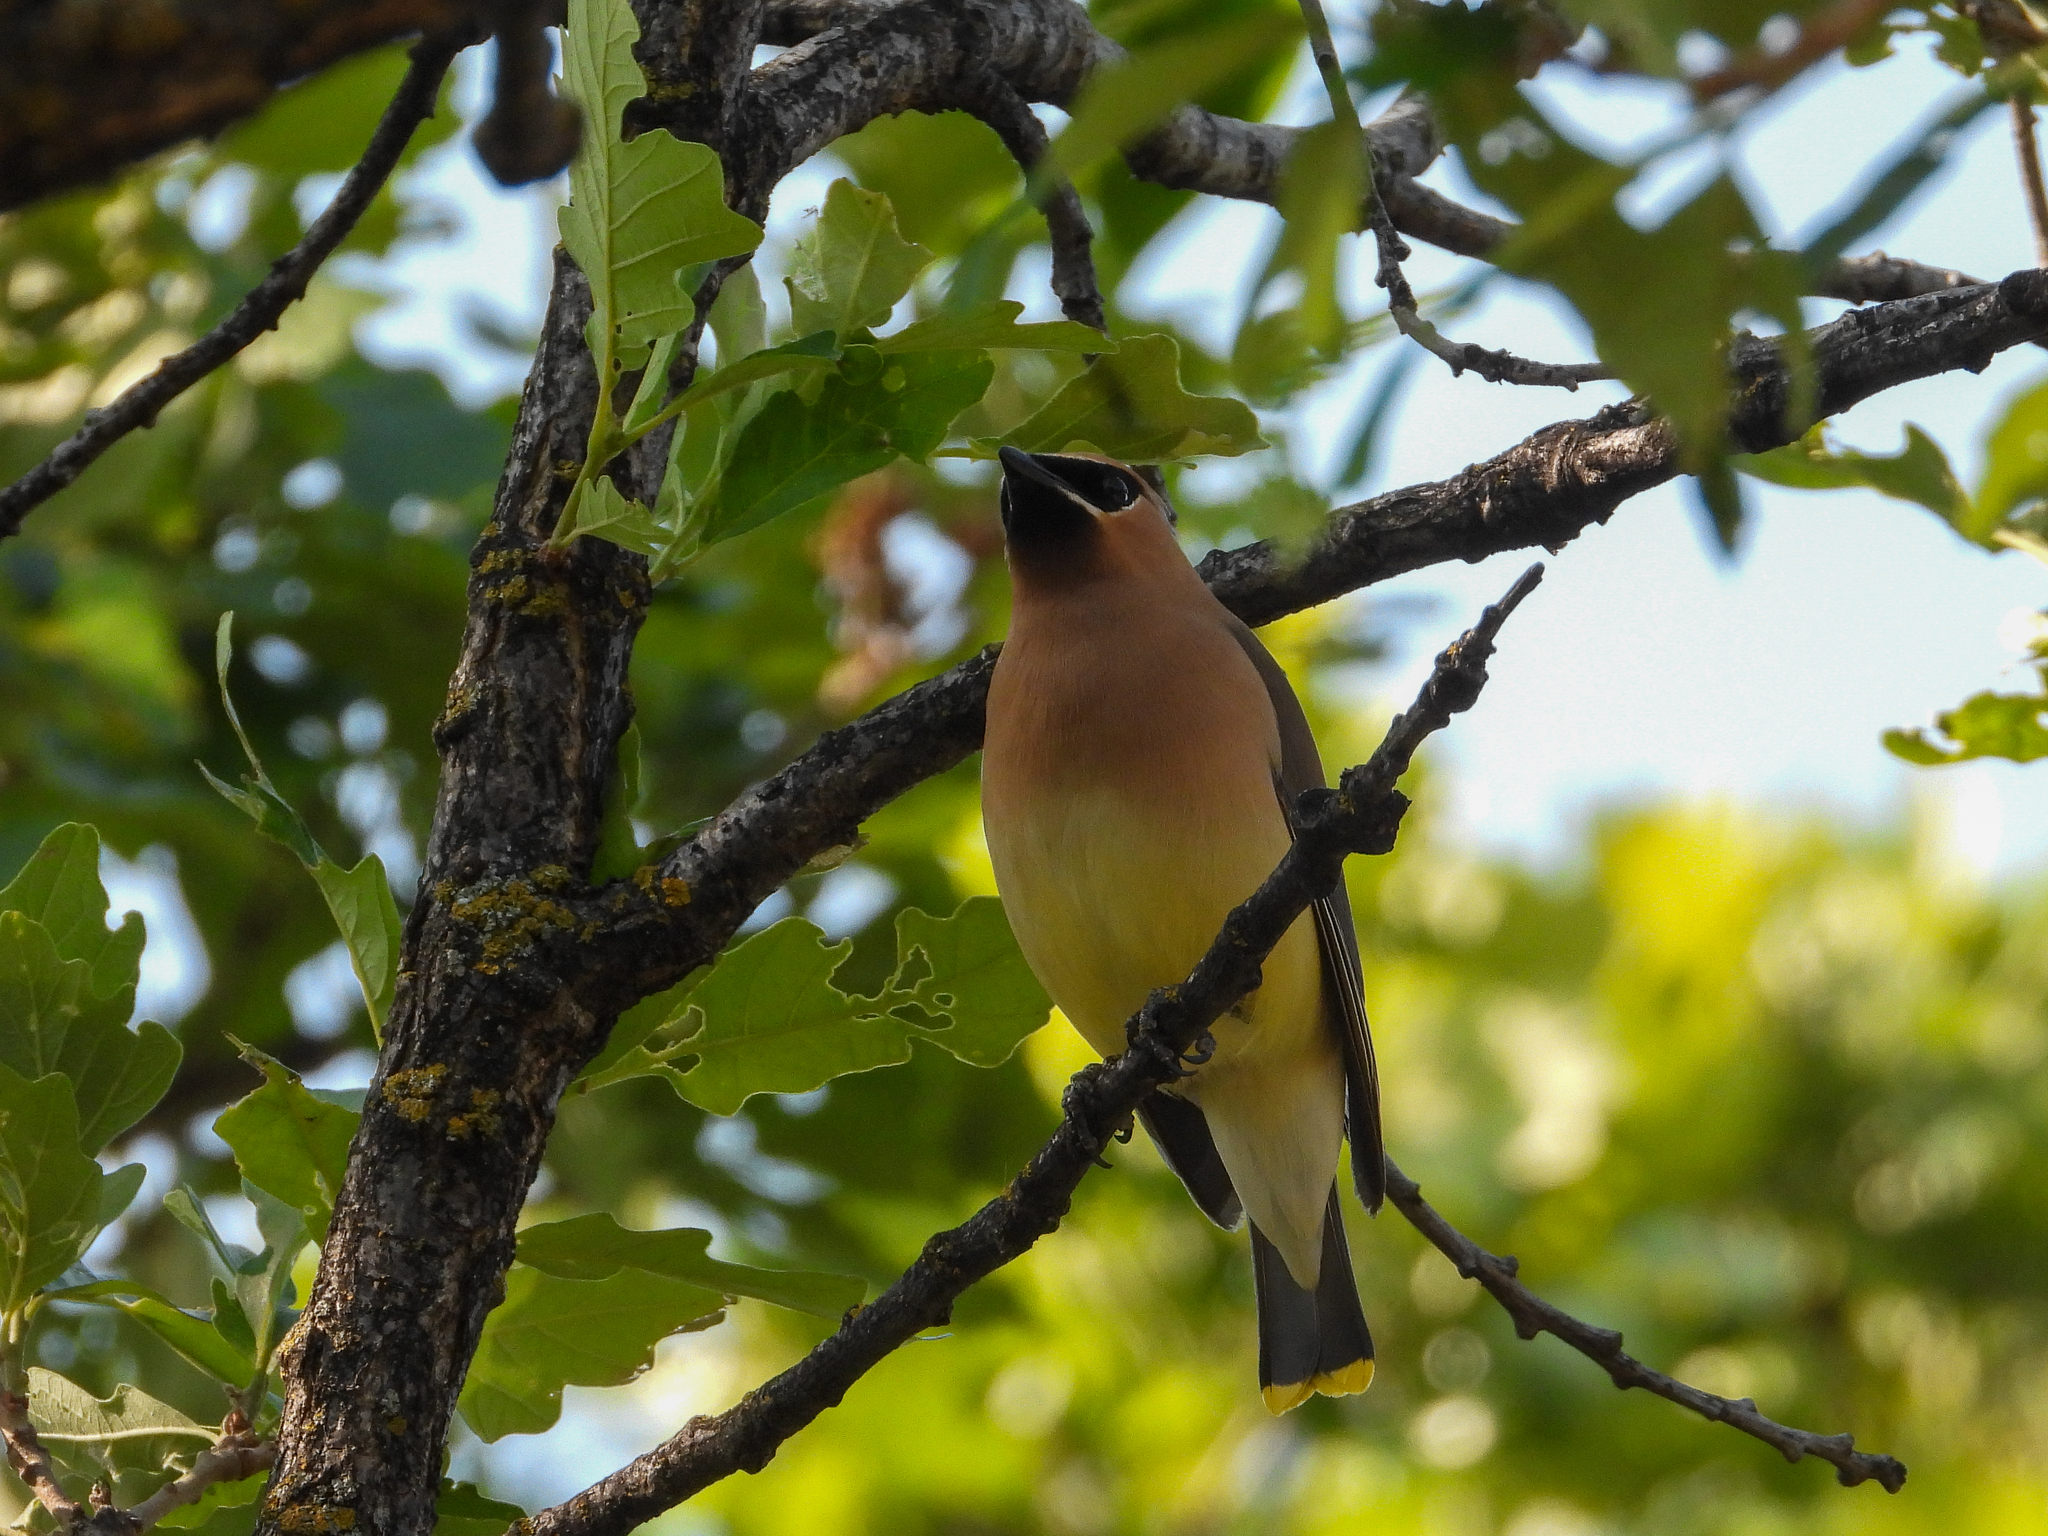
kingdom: Animalia
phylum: Chordata
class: Aves
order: Passeriformes
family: Bombycillidae
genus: Bombycilla
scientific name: Bombycilla cedrorum
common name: Cedar waxwing
